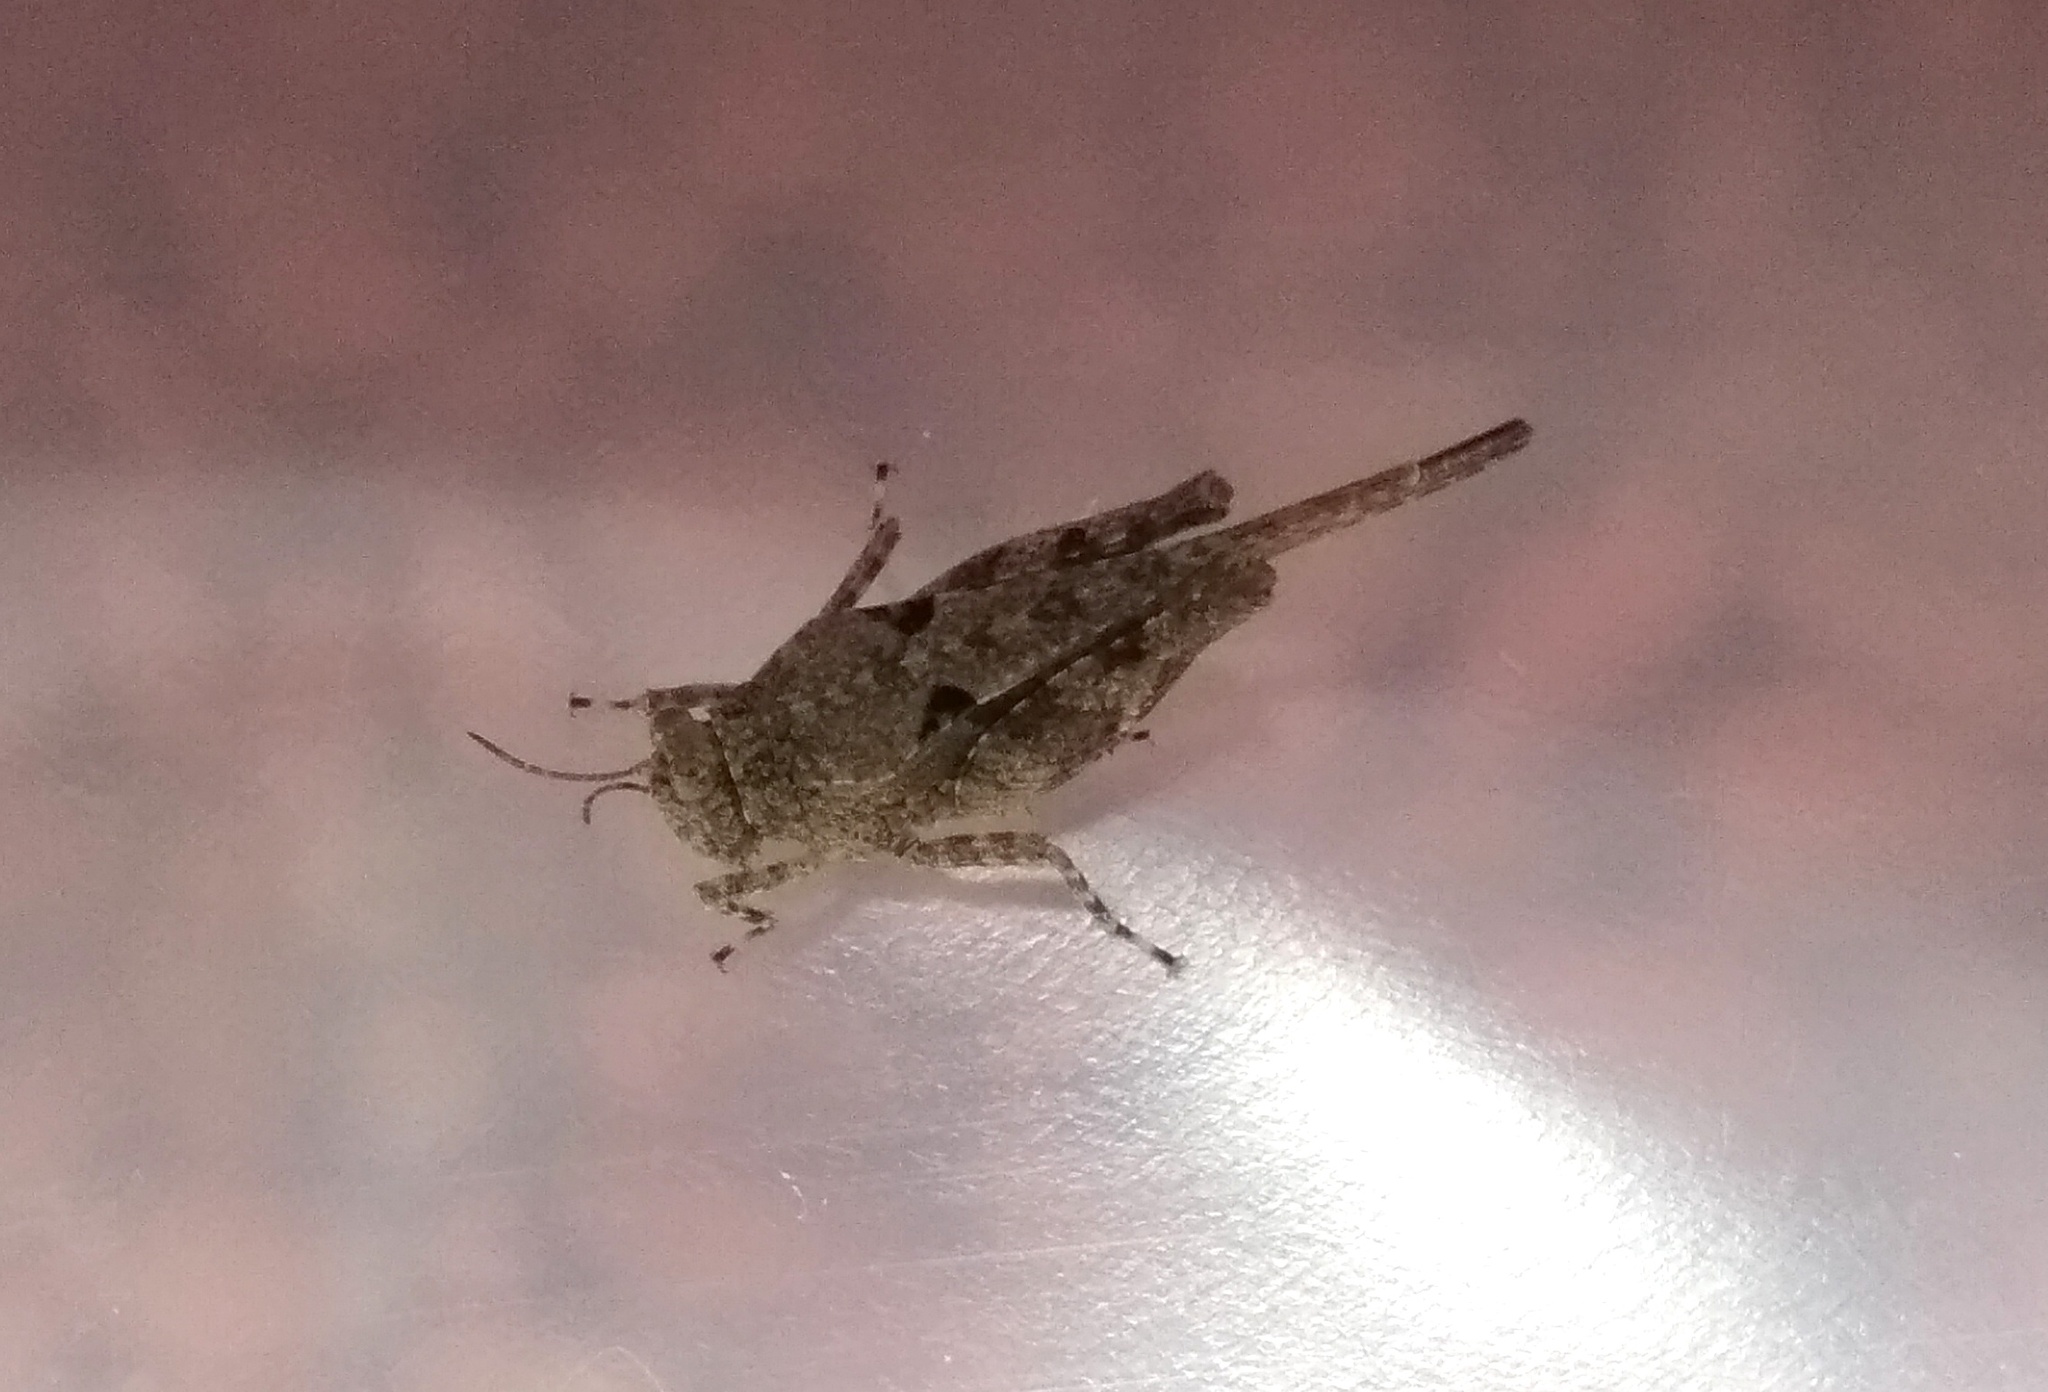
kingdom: Animalia
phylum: Arthropoda
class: Insecta
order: Orthoptera
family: Tetrigidae
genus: Paratettix
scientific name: Paratettix meridionalis
